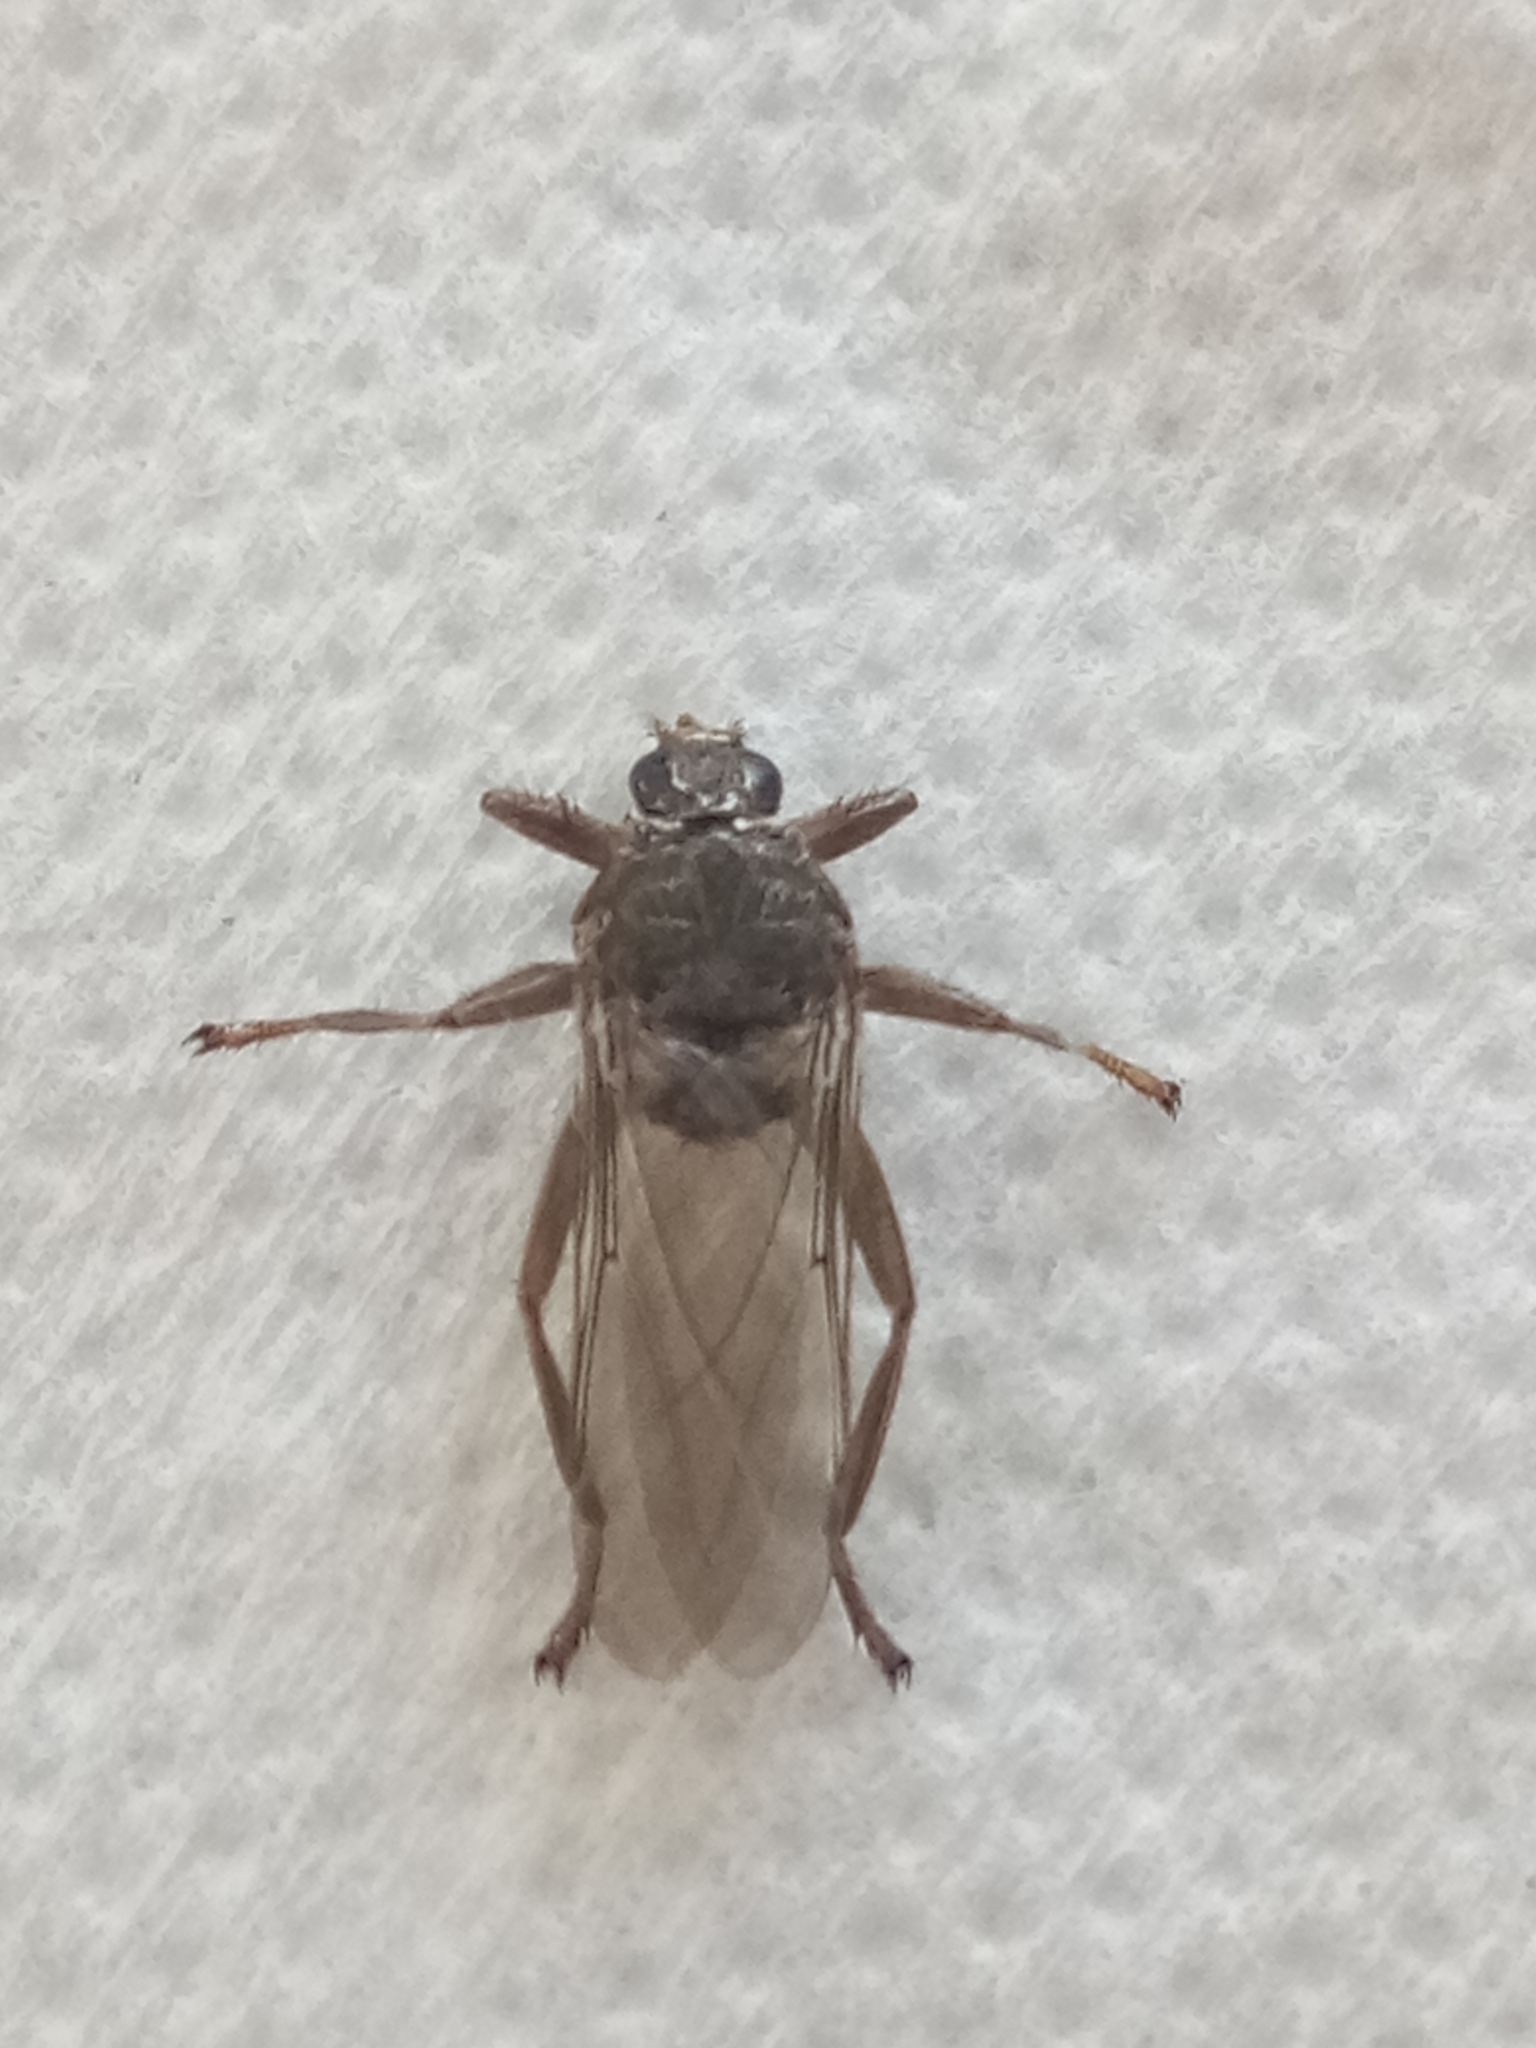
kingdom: Animalia
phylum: Arthropoda
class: Insecta
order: Diptera
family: Hippoboscidae
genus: Pseudolynchia
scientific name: Pseudolynchia canariensis
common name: Louse fly
